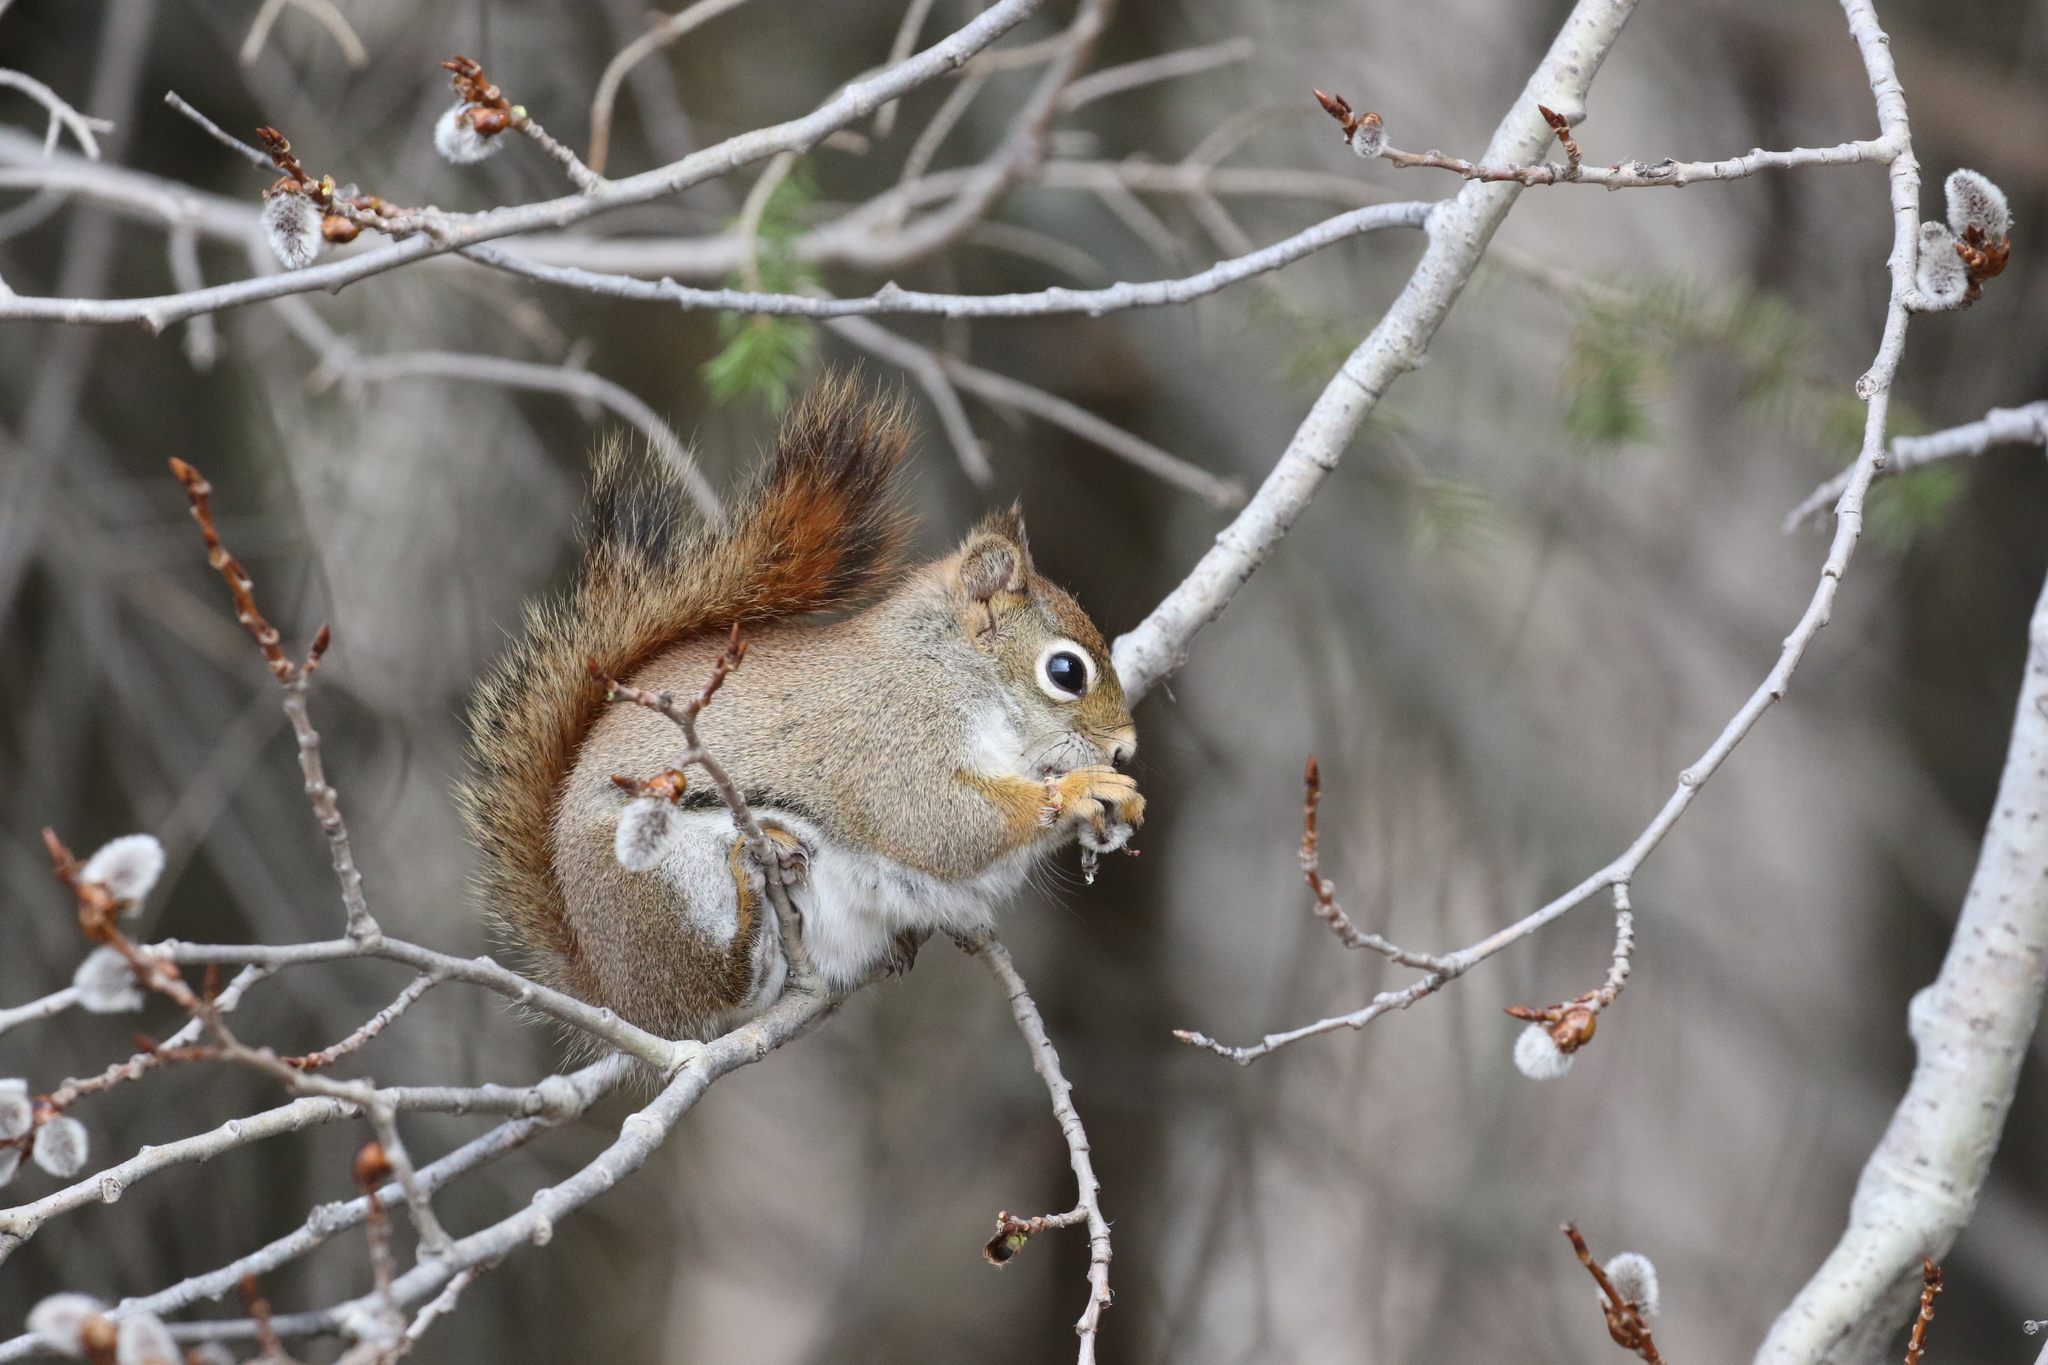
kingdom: Animalia
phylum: Chordata
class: Mammalia
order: Rodentia
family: Sciuridae
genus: Tamiasciurus
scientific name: Tamiasciurus hudsonicus
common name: Red squirrel
